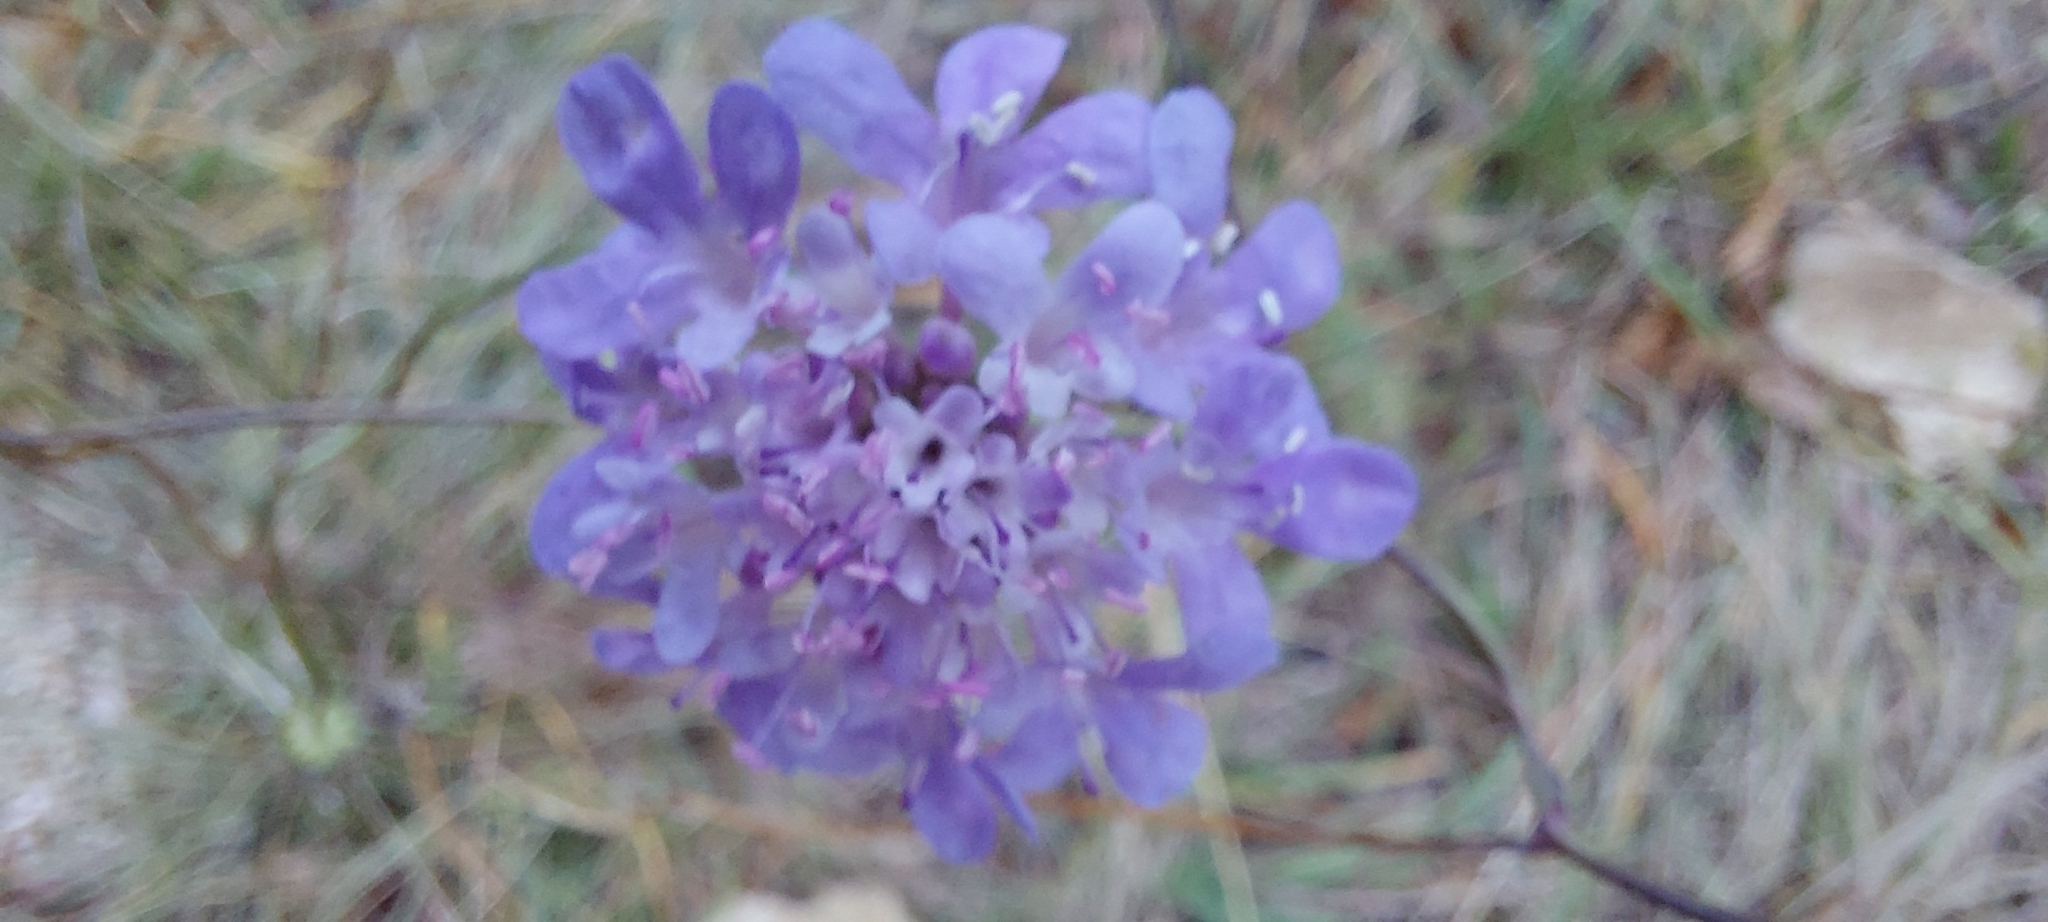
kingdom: Plantae
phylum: Tracheophyta
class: Magnoliopsida
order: Dipsacales
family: Caprifoliaceae
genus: Scabiosa
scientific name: Scabiosa triandra
